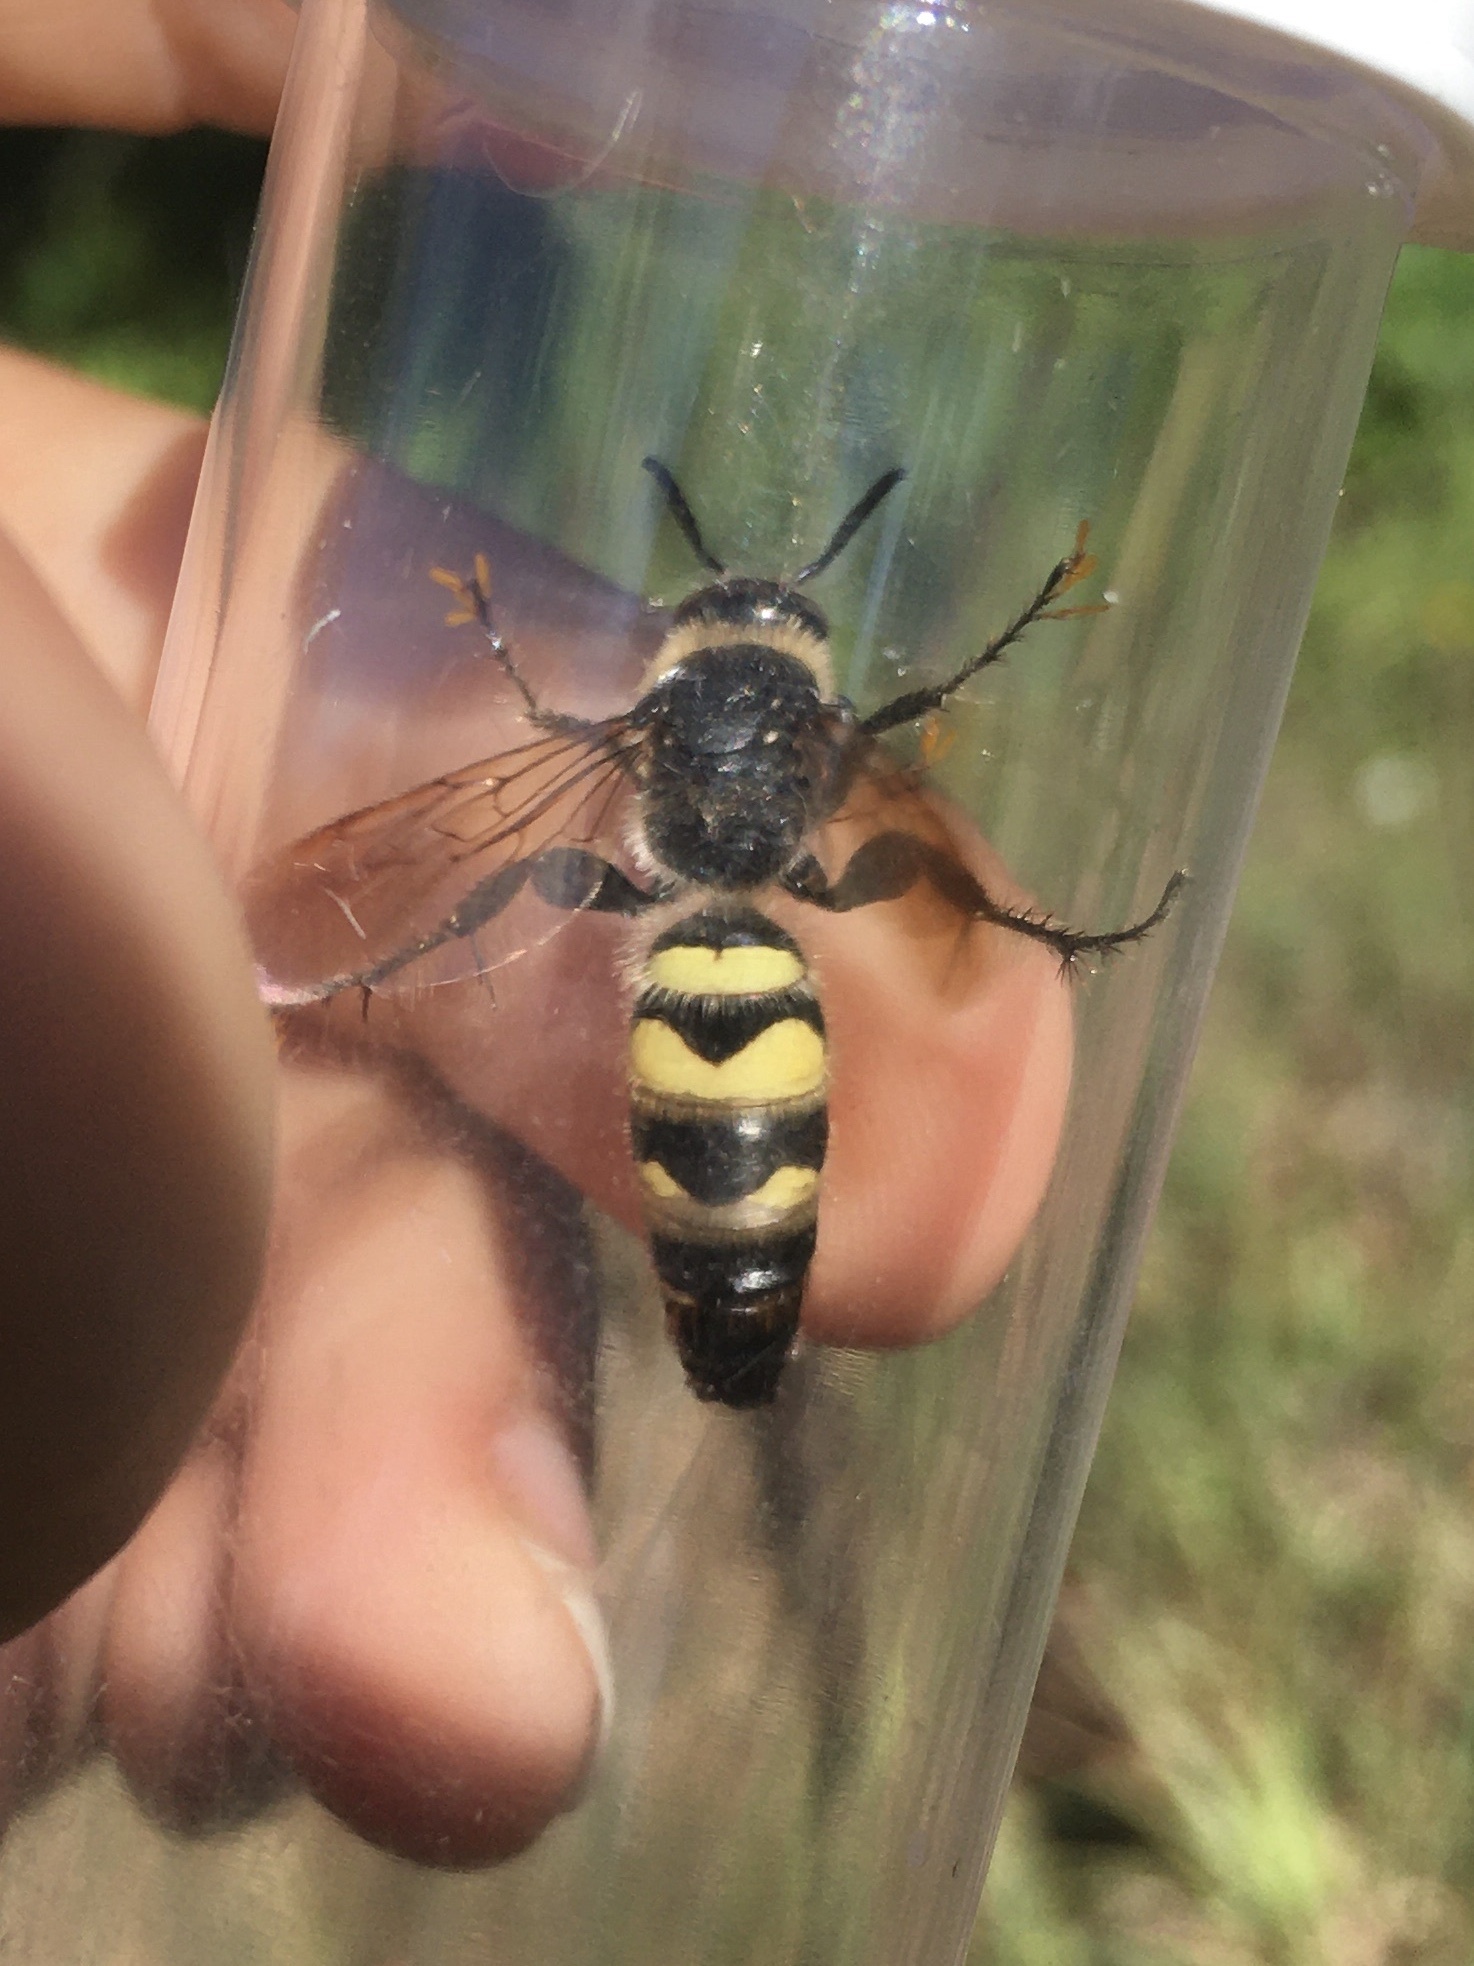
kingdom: Animalia
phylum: Arthropoda
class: Insecta
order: Hymenoptera
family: Scoliidae
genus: Dielis
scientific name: Dielis
